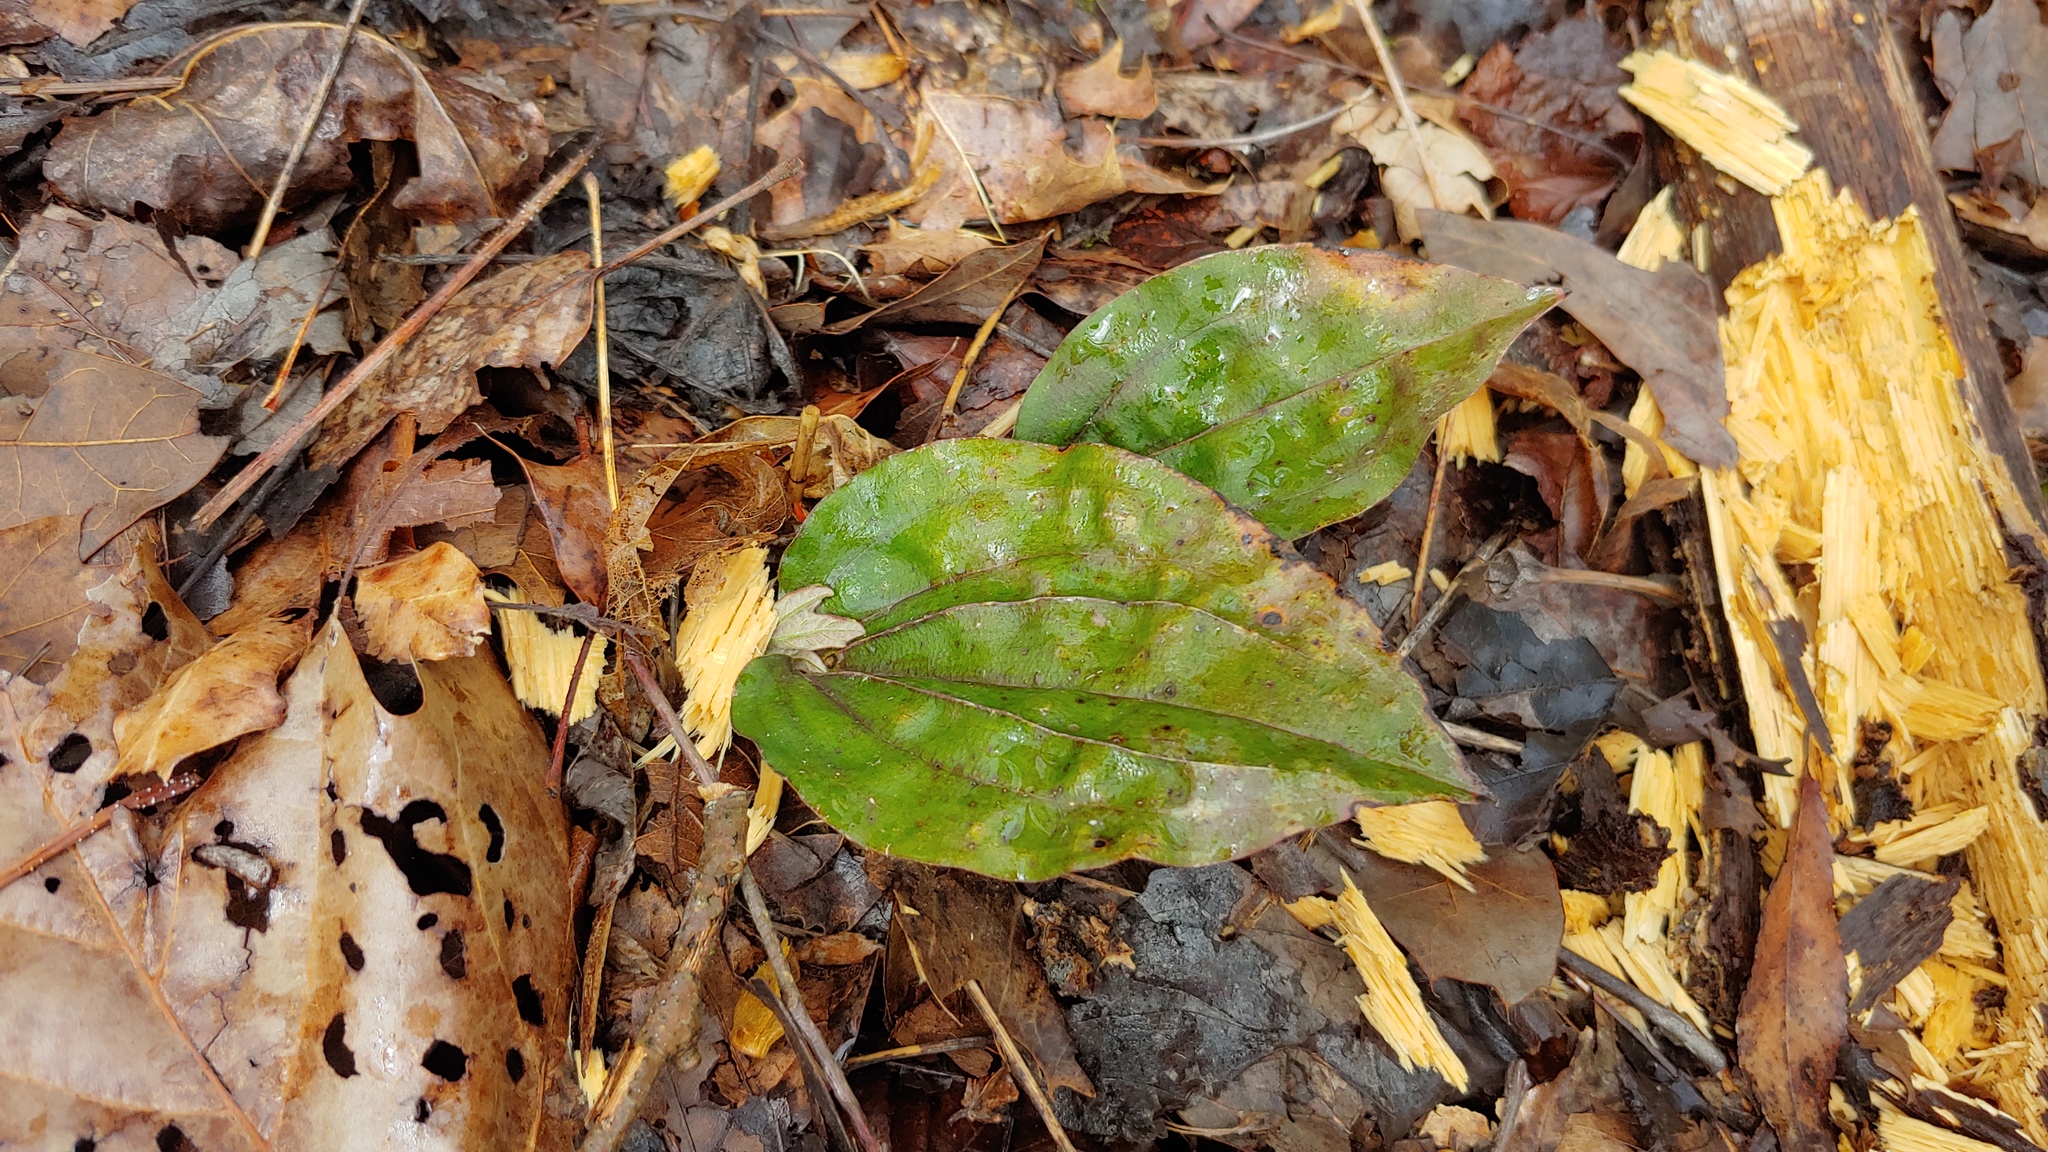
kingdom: Plantae
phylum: Tracheophyta
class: Liliopsida
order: Asparagales
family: Orchidaceae
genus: Tipularia
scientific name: Tipularia discolor
